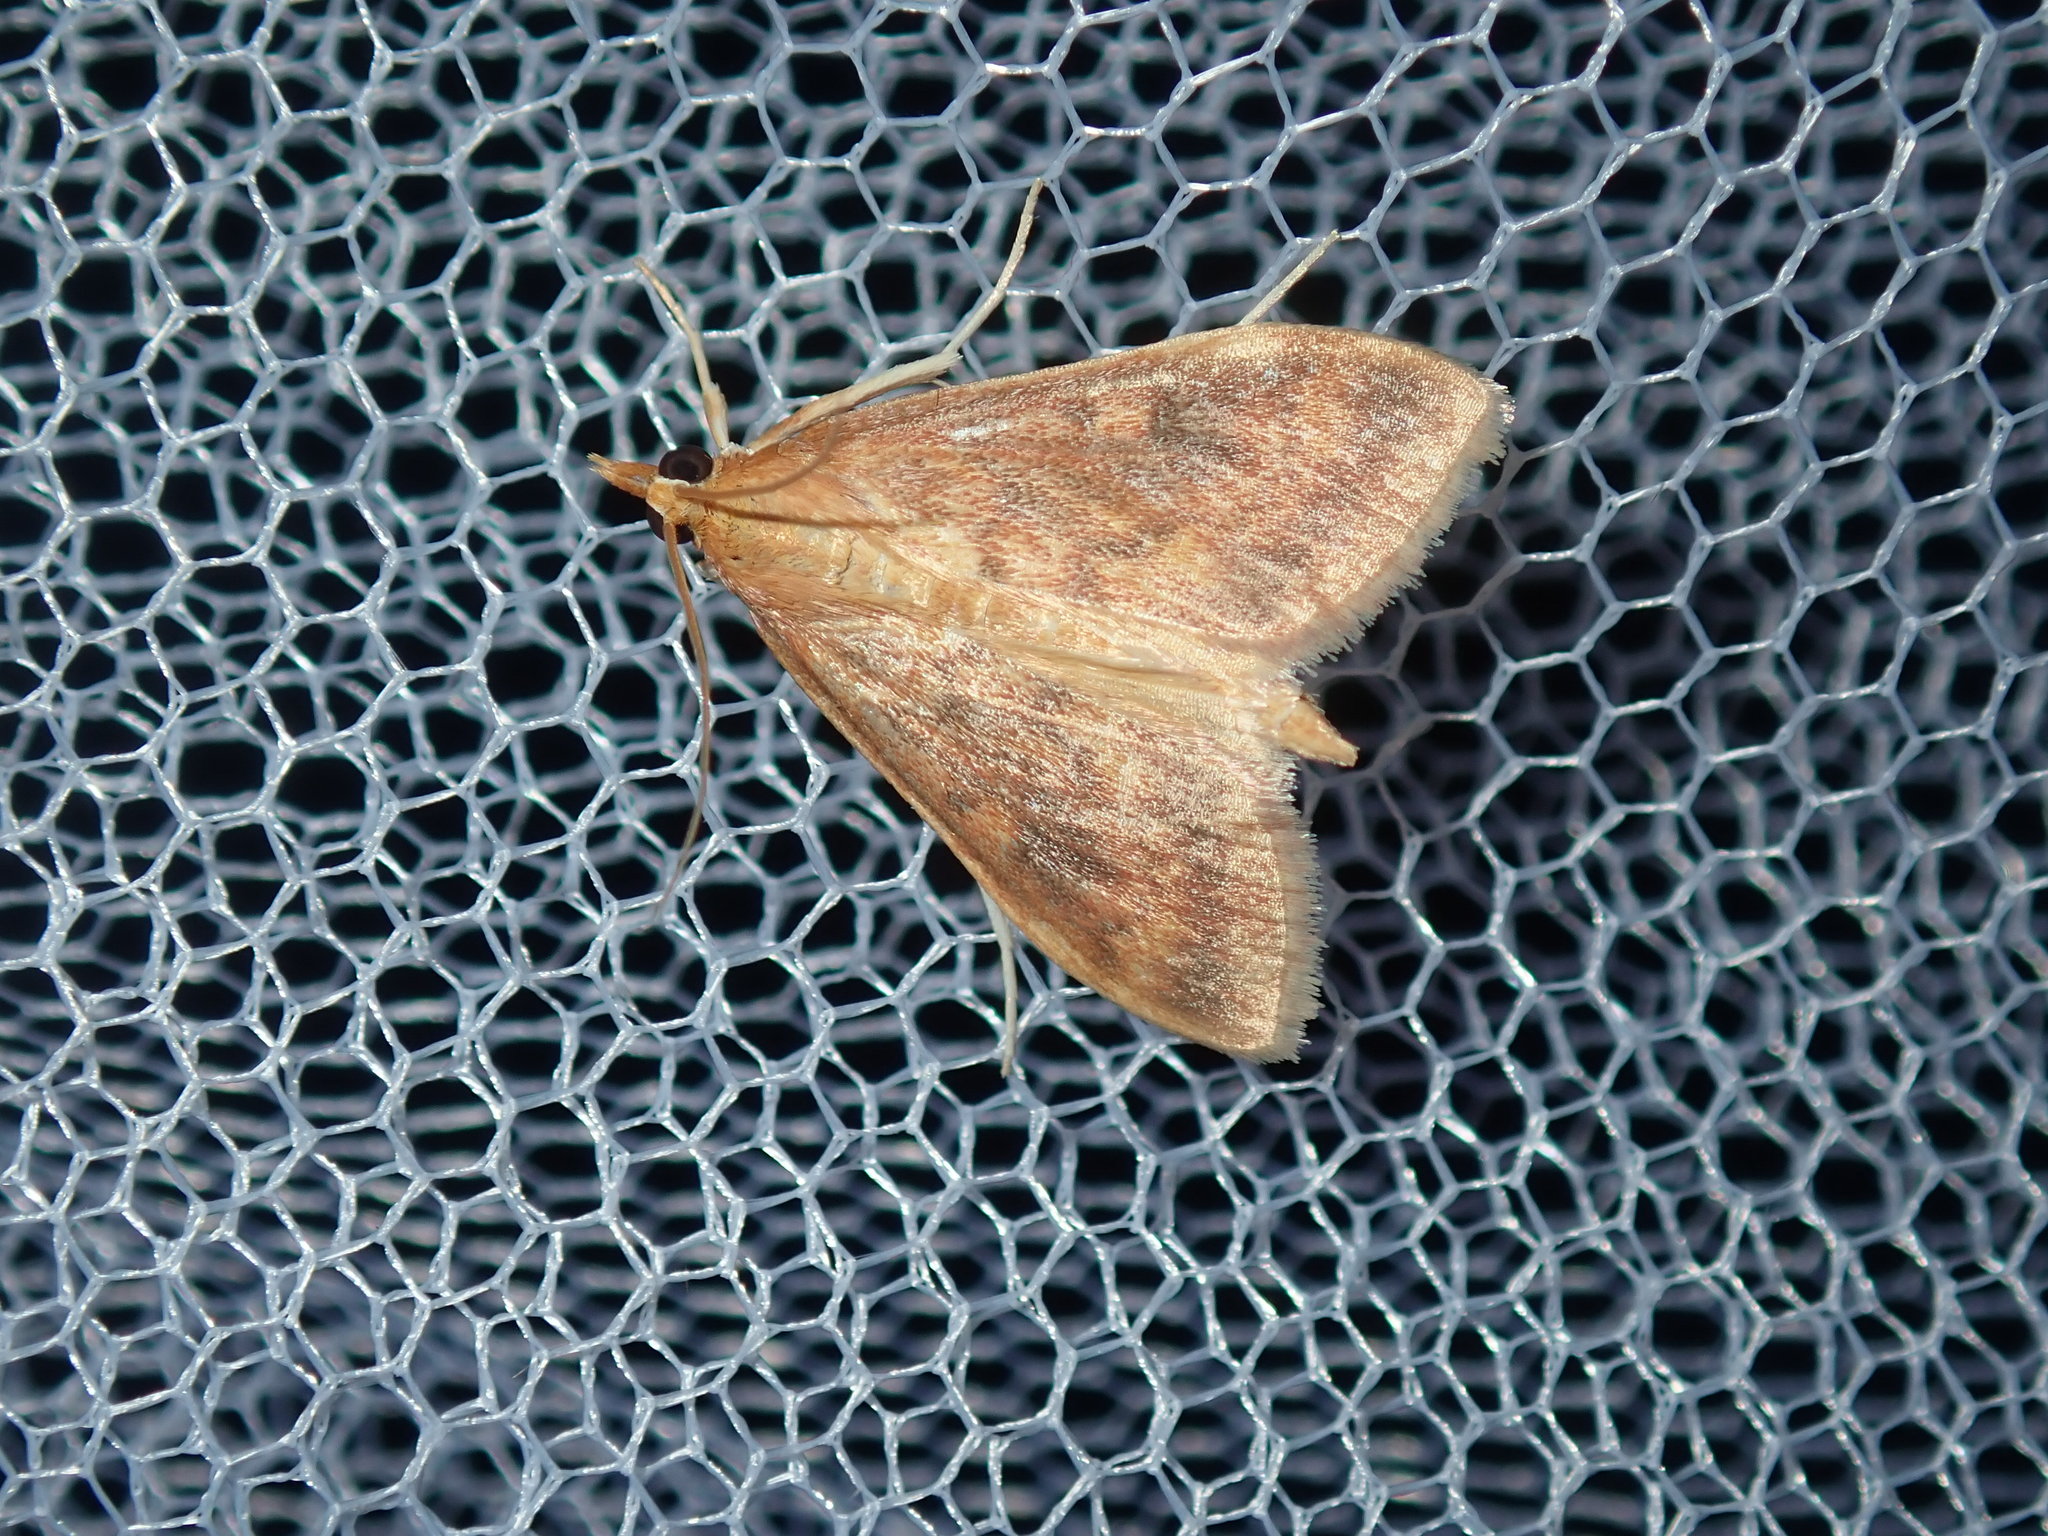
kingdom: Animalia
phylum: Arthropoda
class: Insecta
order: Lepidoptera
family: Crambidae
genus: Ostrinia
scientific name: Ostrinia furnacalis
